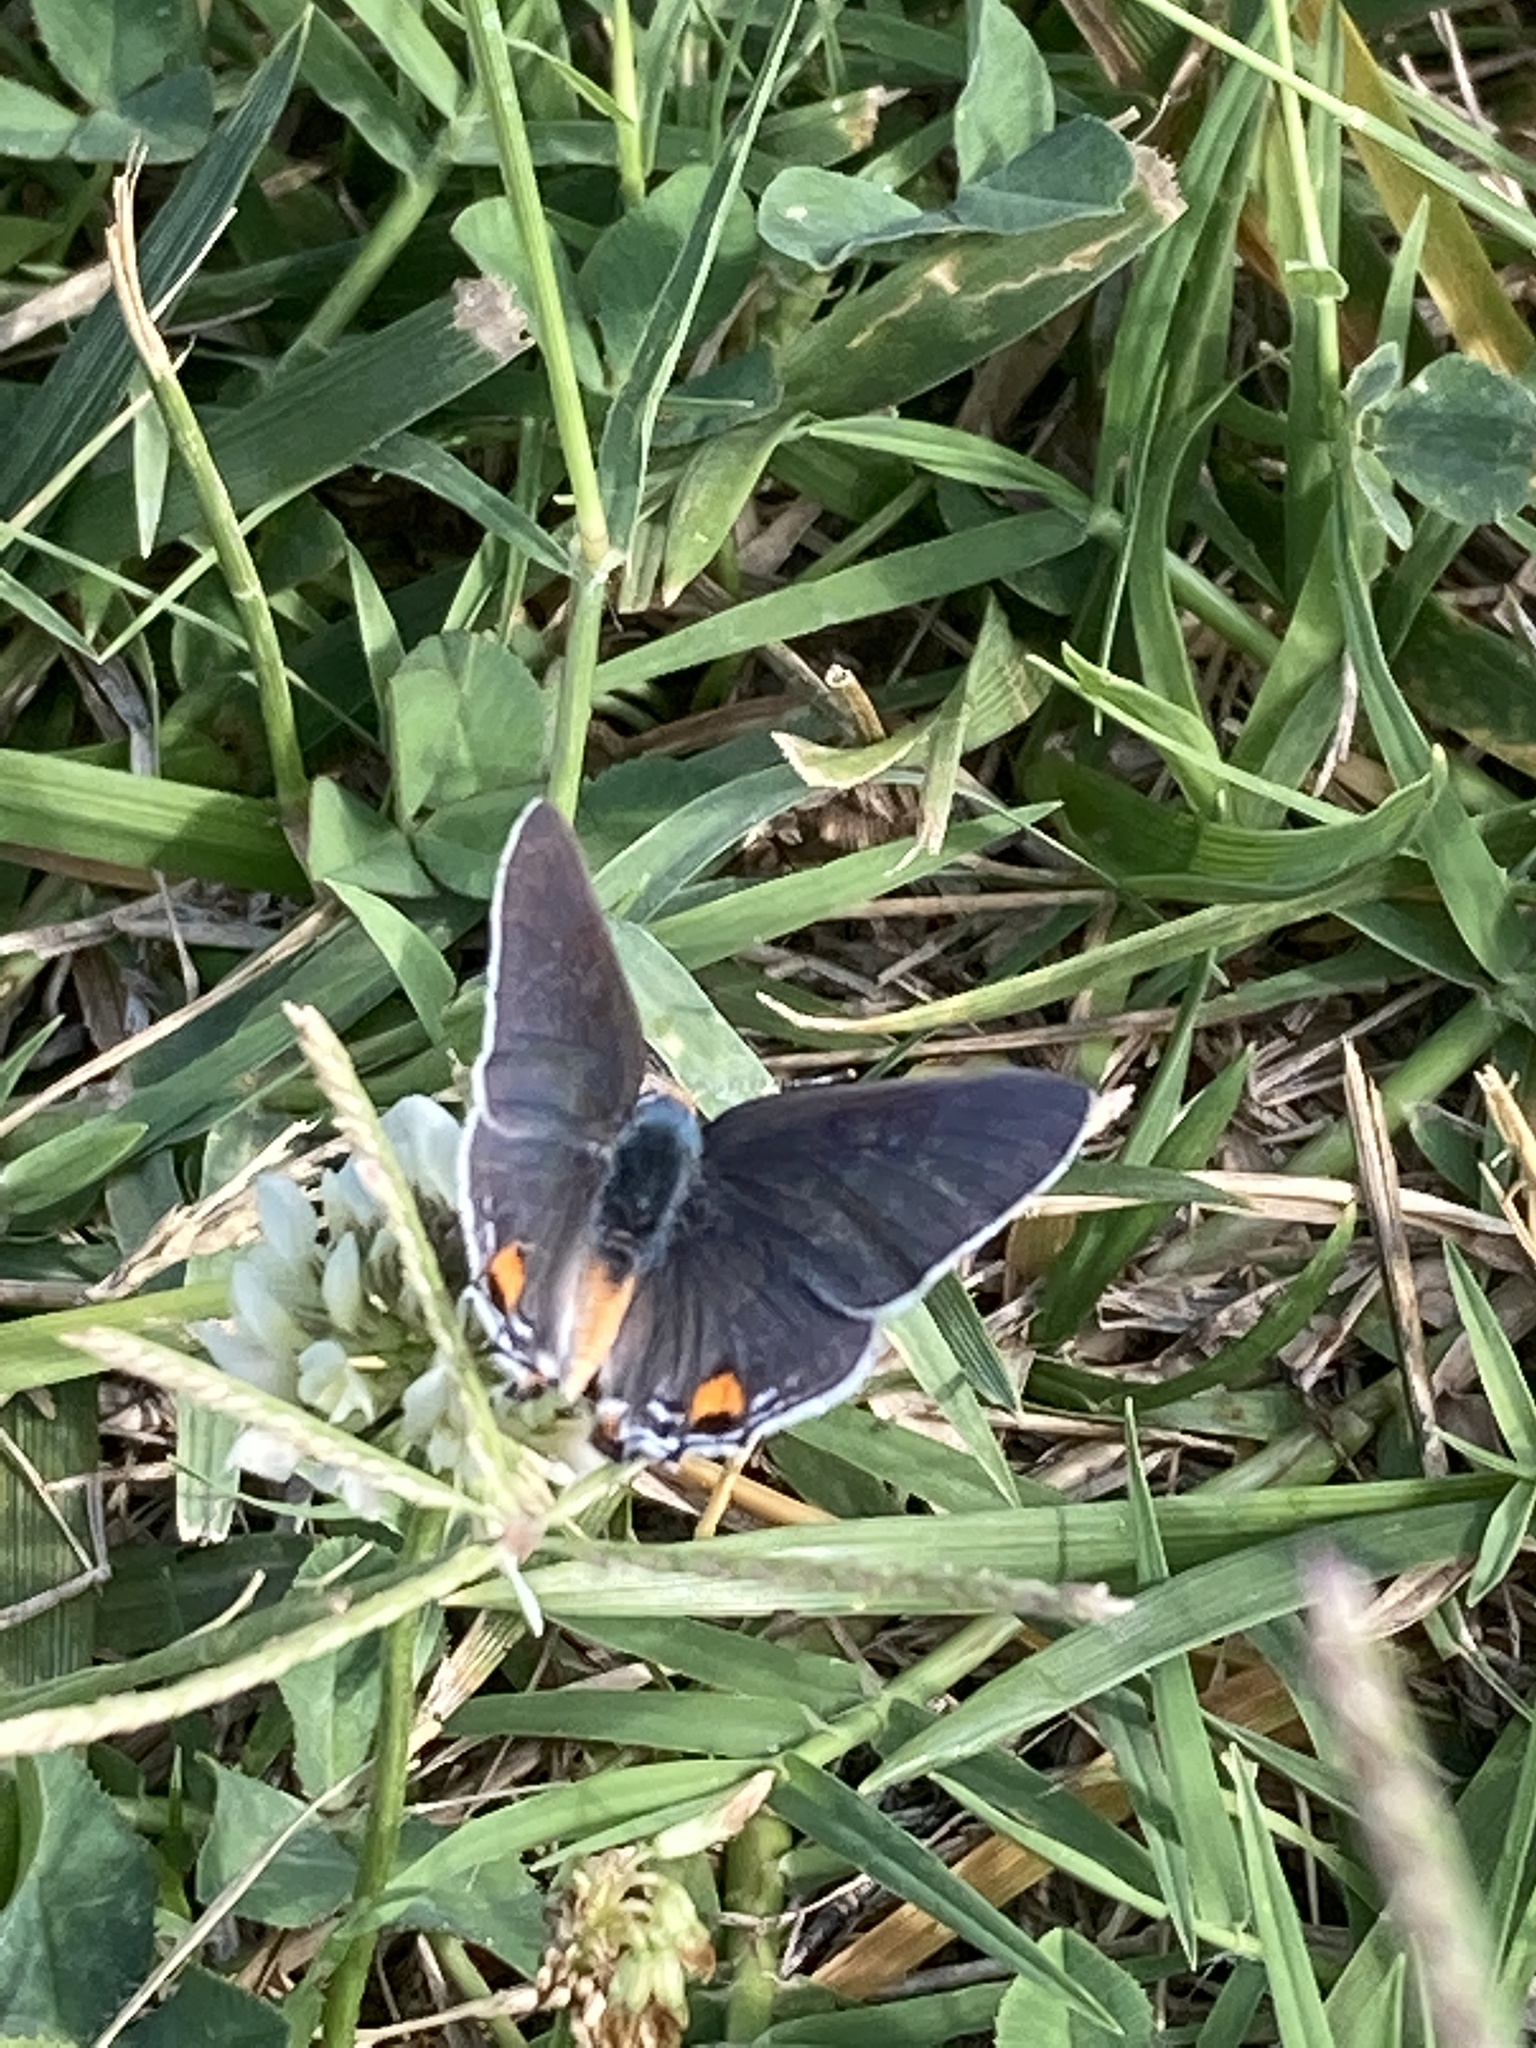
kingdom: Animalia
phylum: Arthropoda
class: Insecta
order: Lepidoptera
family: Lycaenidae
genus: Strymon
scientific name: Strymon melinus
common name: Gray hairstreak
